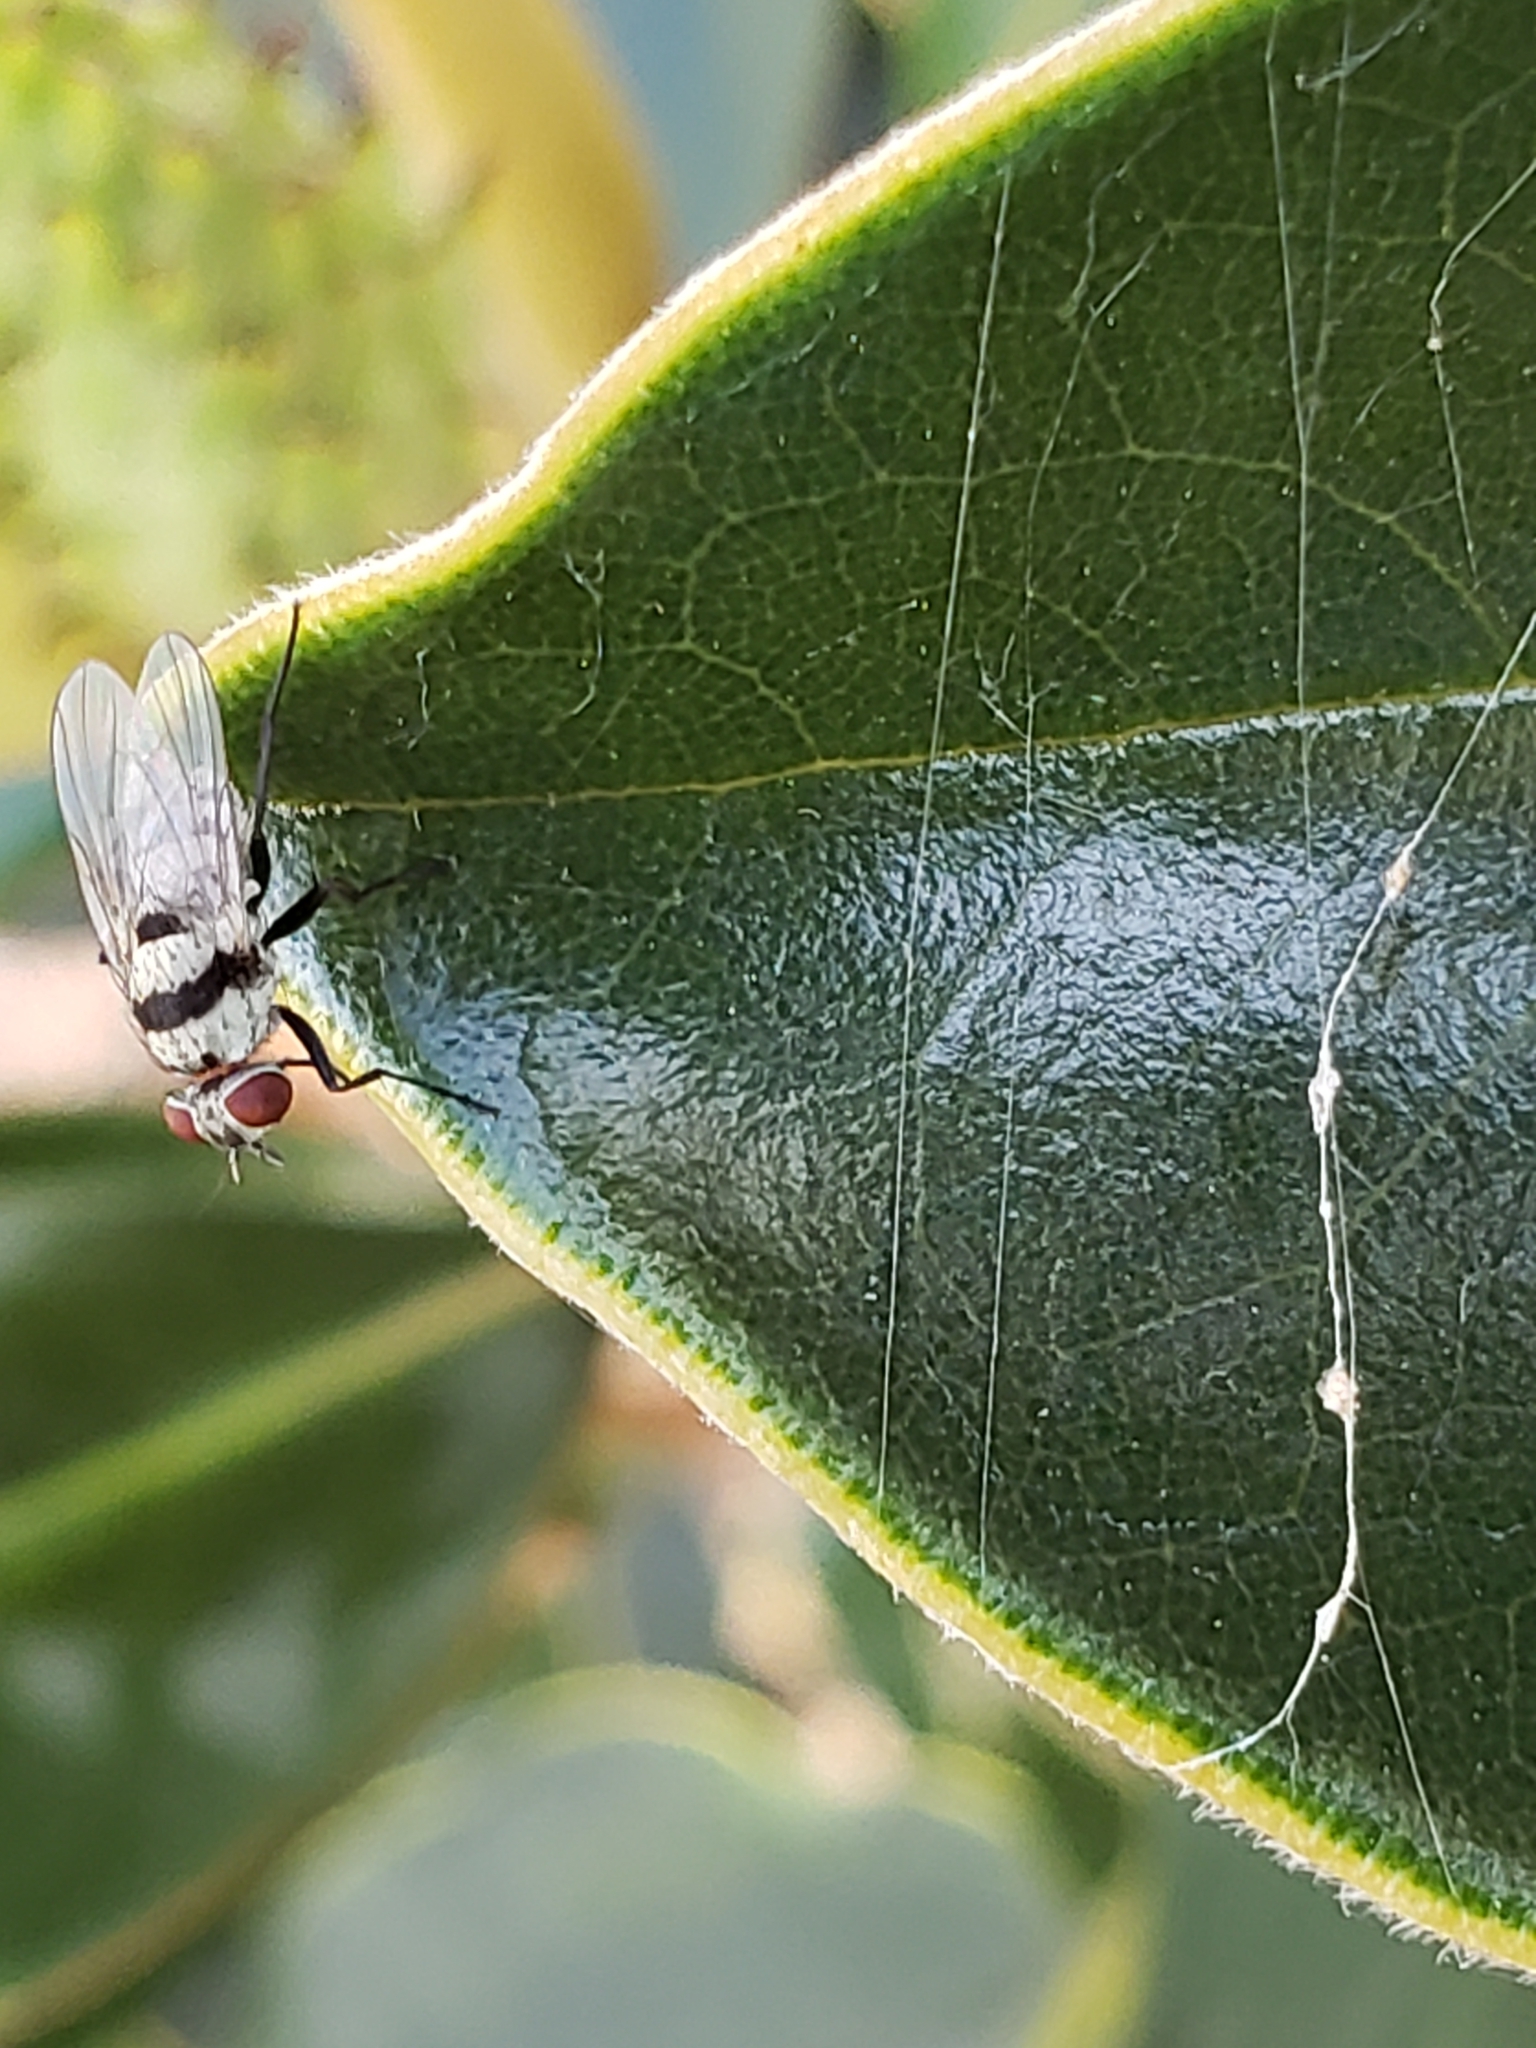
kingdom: Animalia
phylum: Arthropoda
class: Insecta
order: Diptera
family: Anthomyiidae
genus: Anthomyia
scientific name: Anthomyia illocata
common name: Fly
